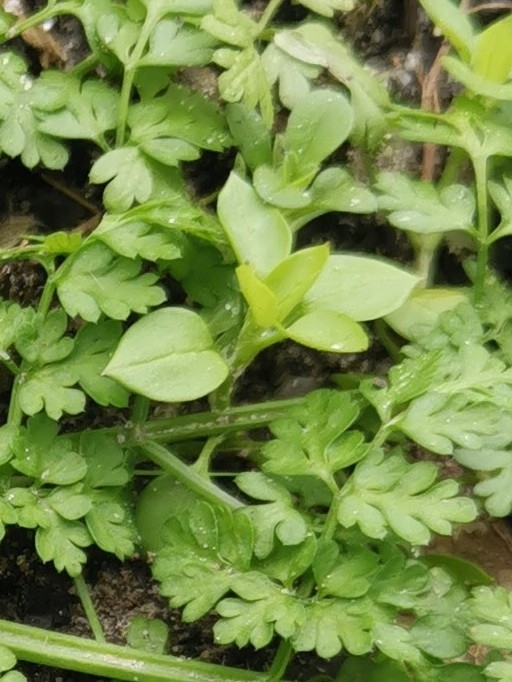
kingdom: Plantae
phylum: Tracheophyta
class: Magnoliopsida
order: Caryophyllales
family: Caryophyllaceae
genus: Stellaria
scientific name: Stellaria media
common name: Common chickweed
